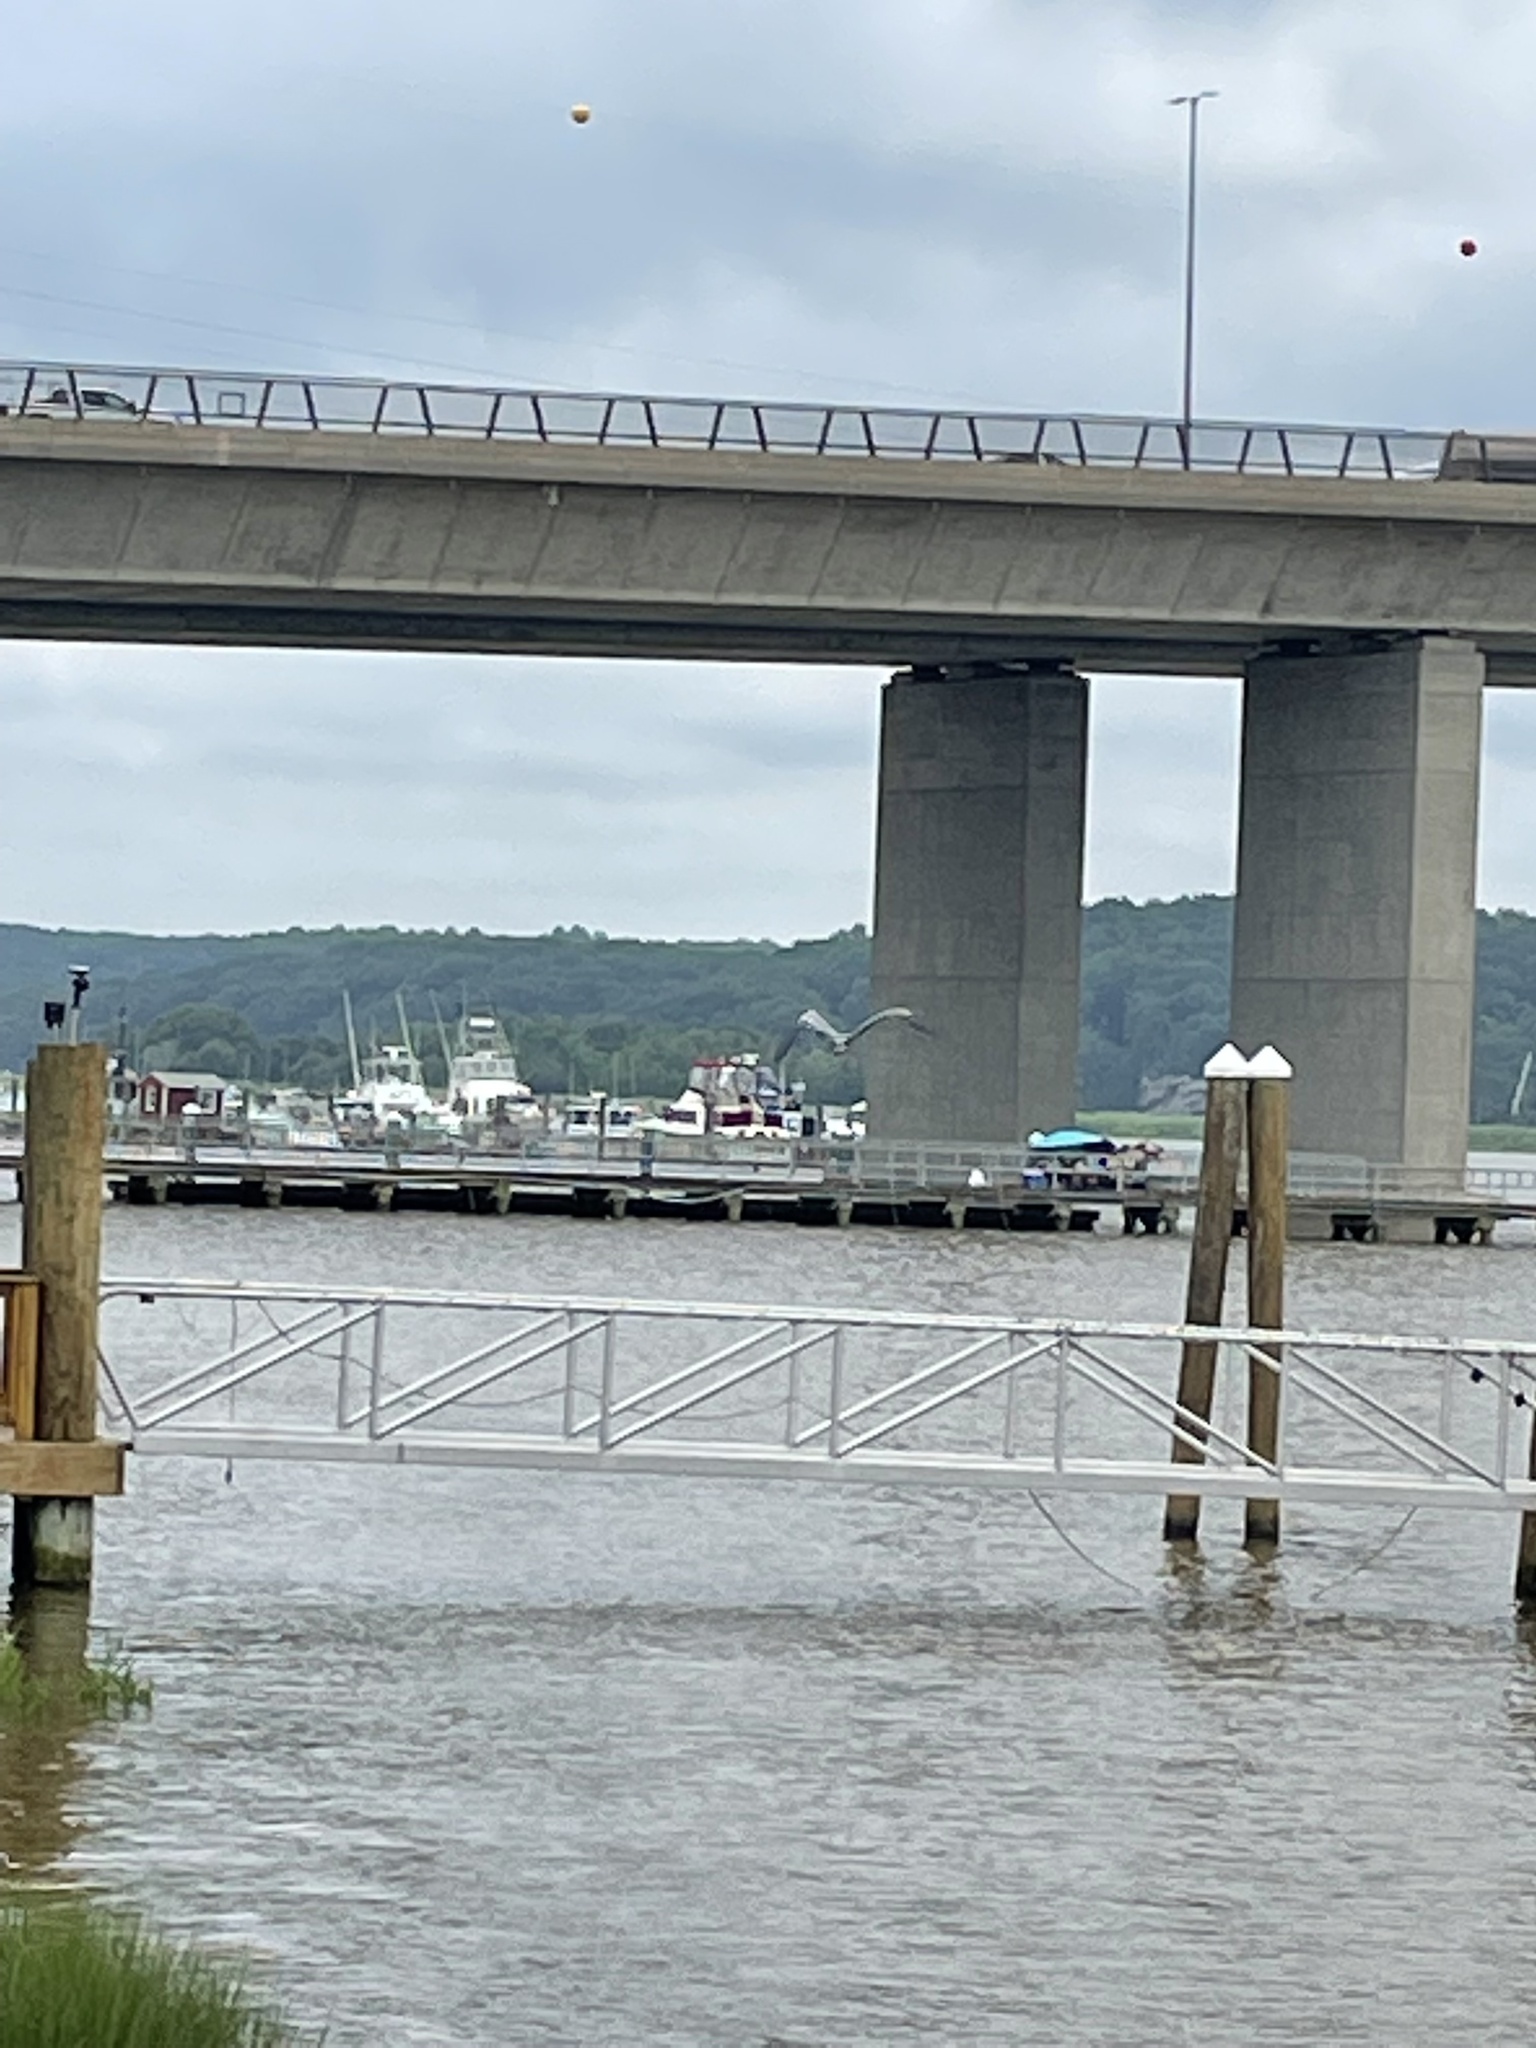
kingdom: Animalia
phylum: Chordata
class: Aves
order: Pelecaniformes
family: Ardeidae
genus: Ardea
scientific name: Ardea herodias
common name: Great blue heron
